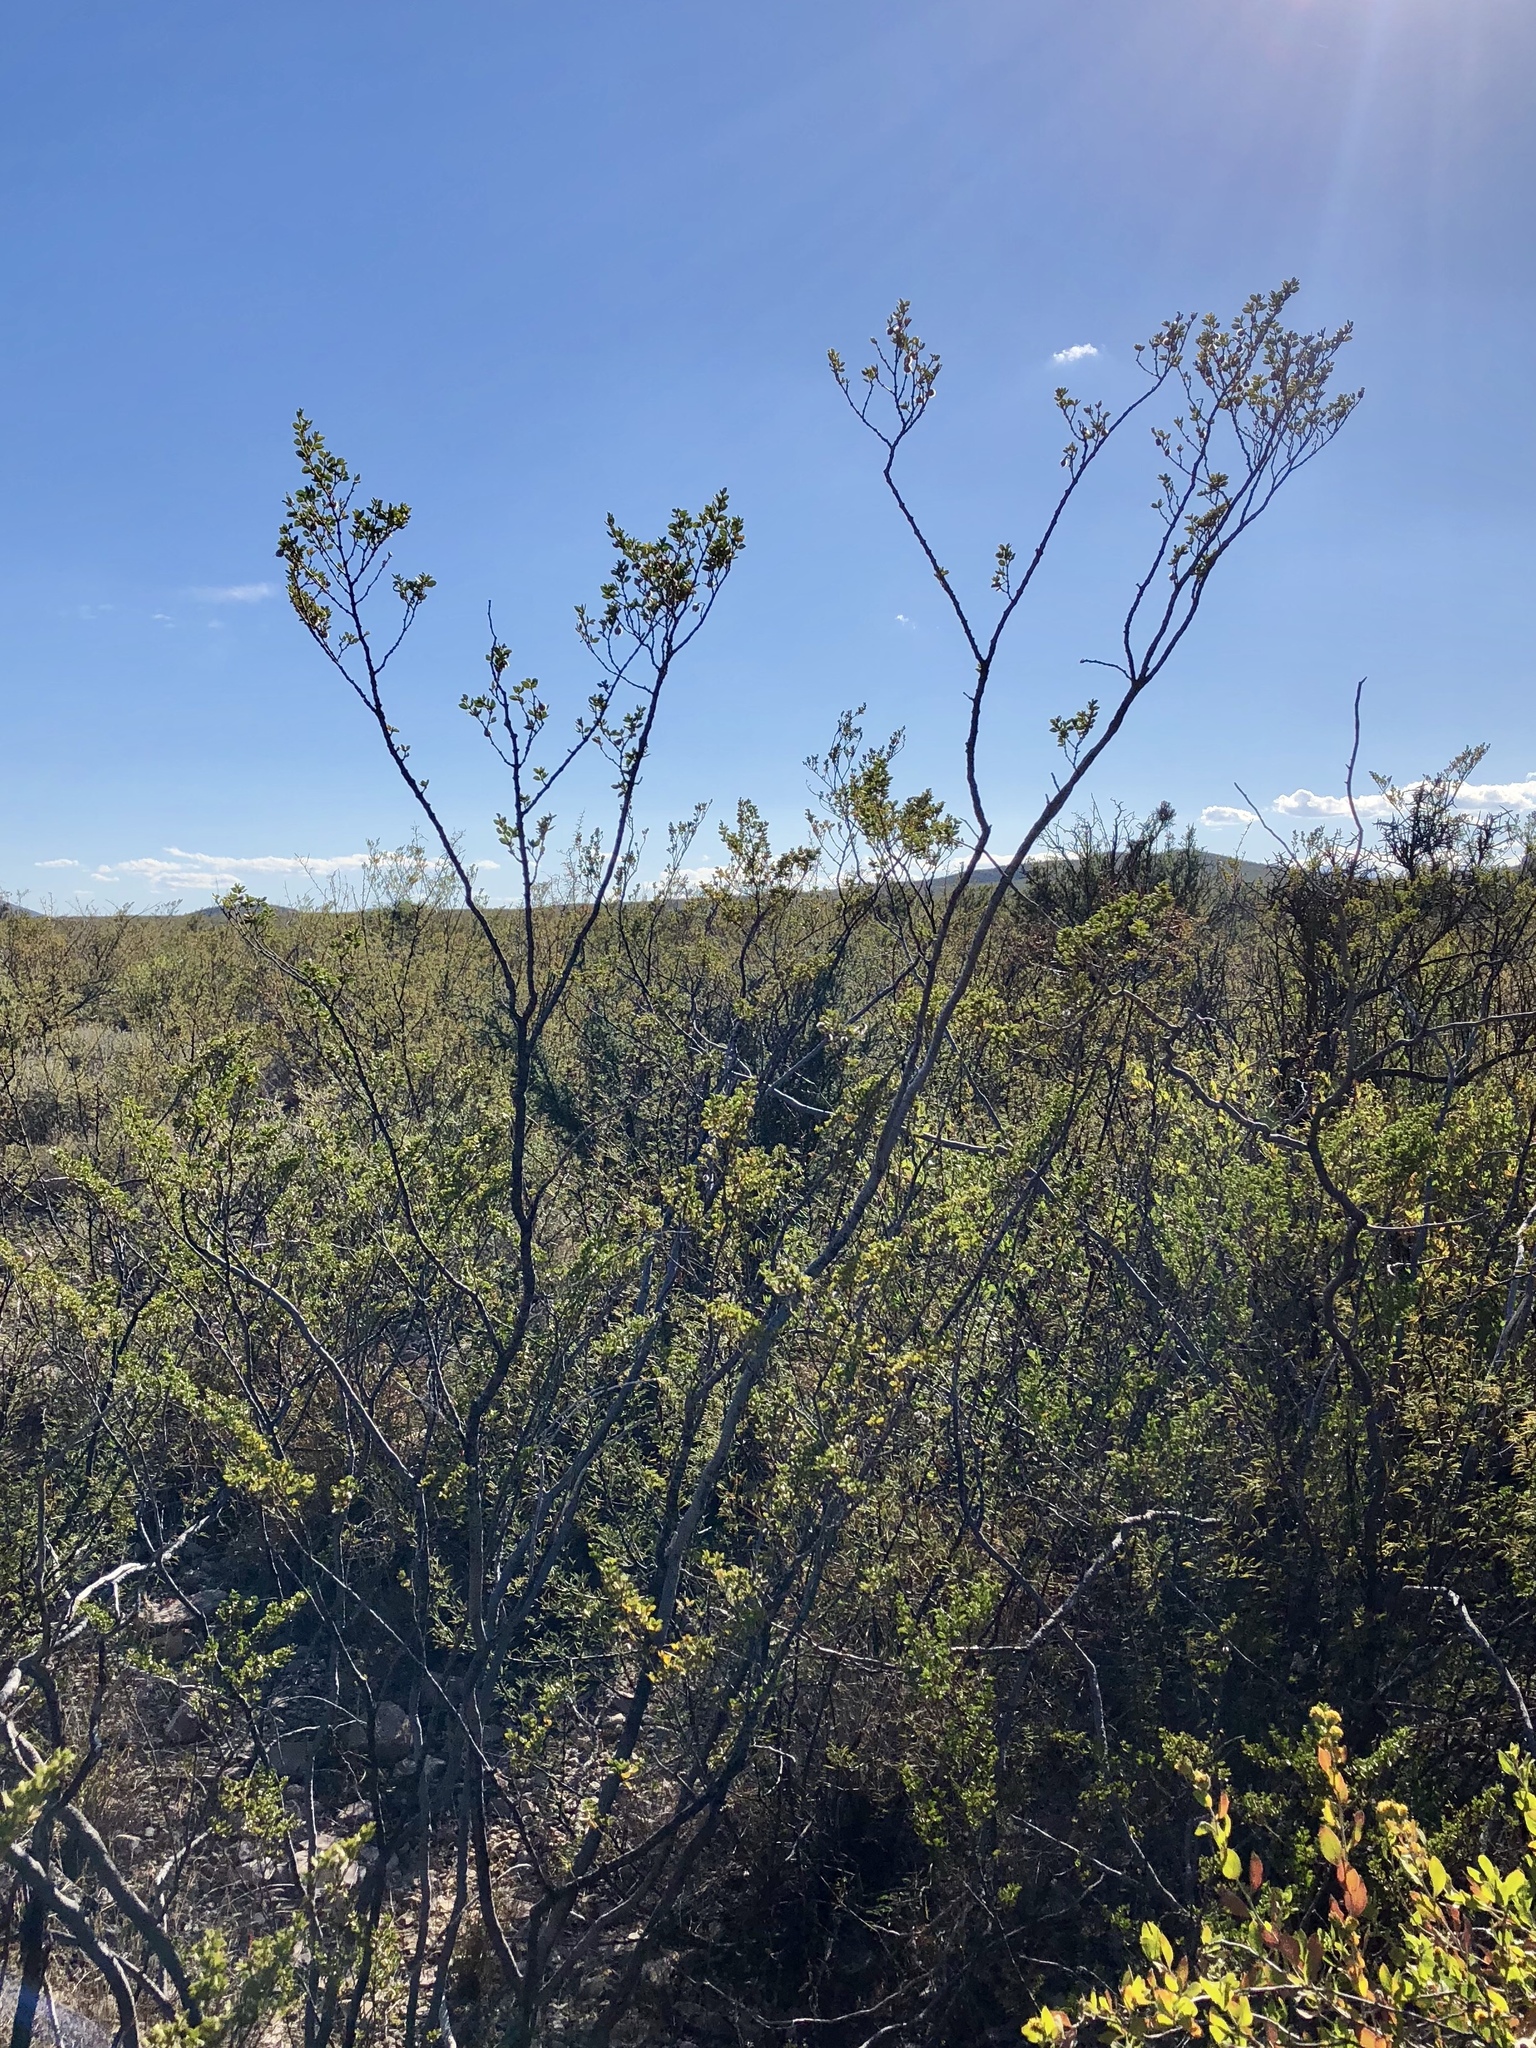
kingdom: Plantae
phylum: Tracheophyta
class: Magnoliopsida
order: Zygophyllales
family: Zygophyllaceae
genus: Larrea
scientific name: Larrea tridentata
